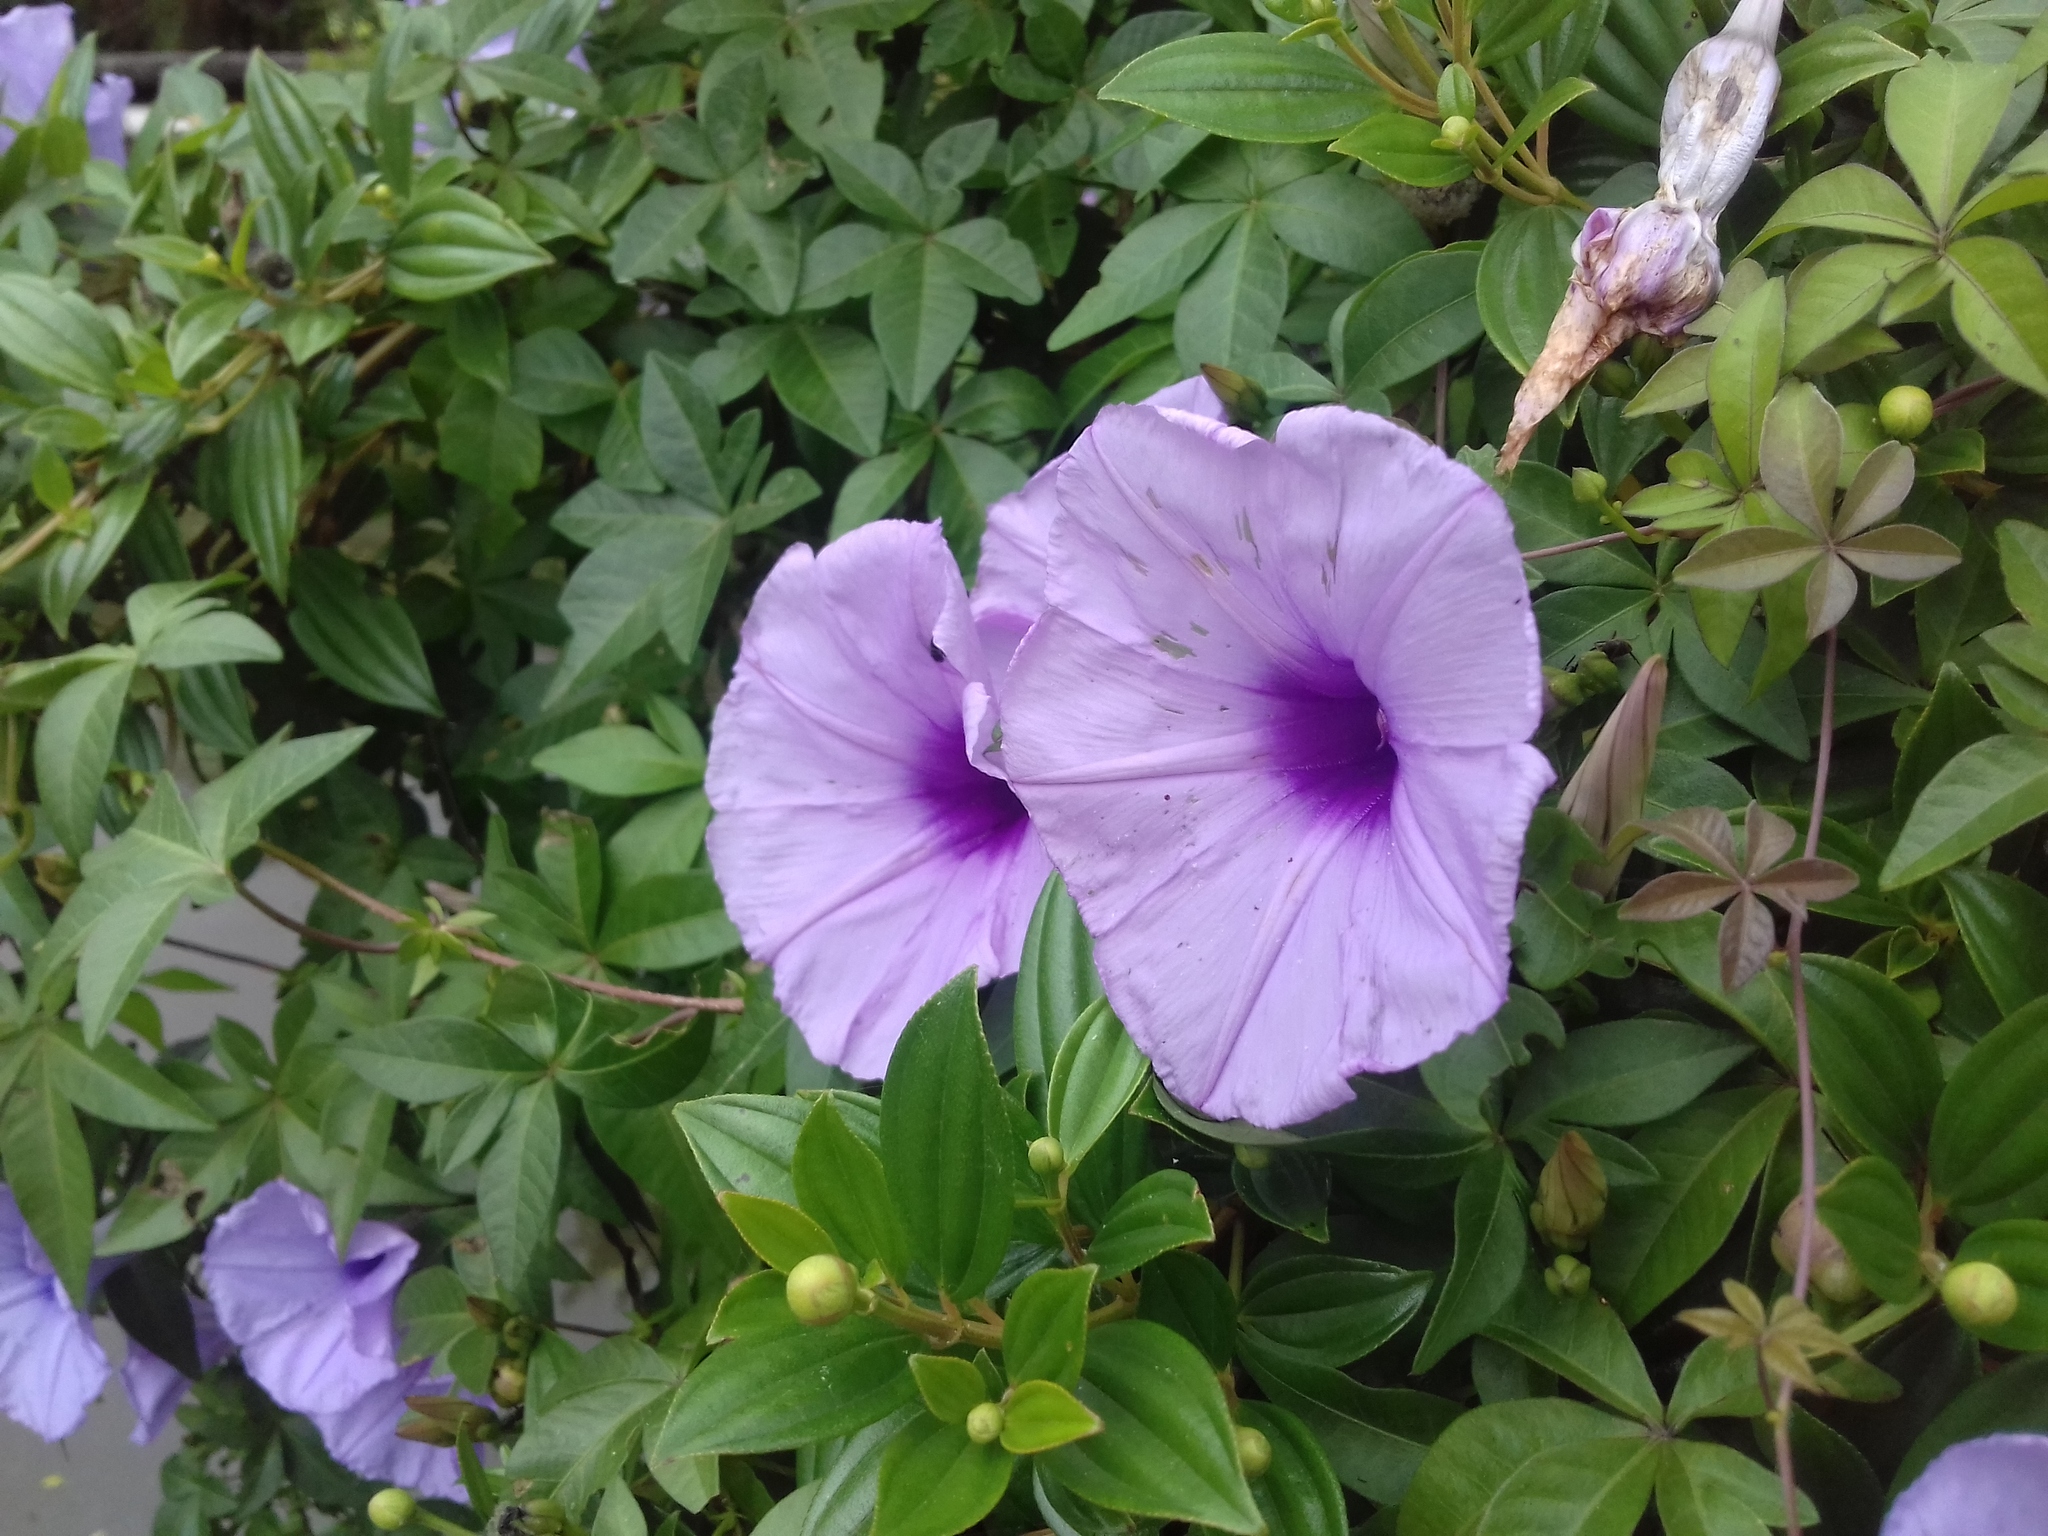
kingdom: Plantae
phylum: Tracheophyta
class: Magnoliopsida
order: Solanales
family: Convolvulaceae
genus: Ipomoea
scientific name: Ipomoea cairica
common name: Mile a minute vine
